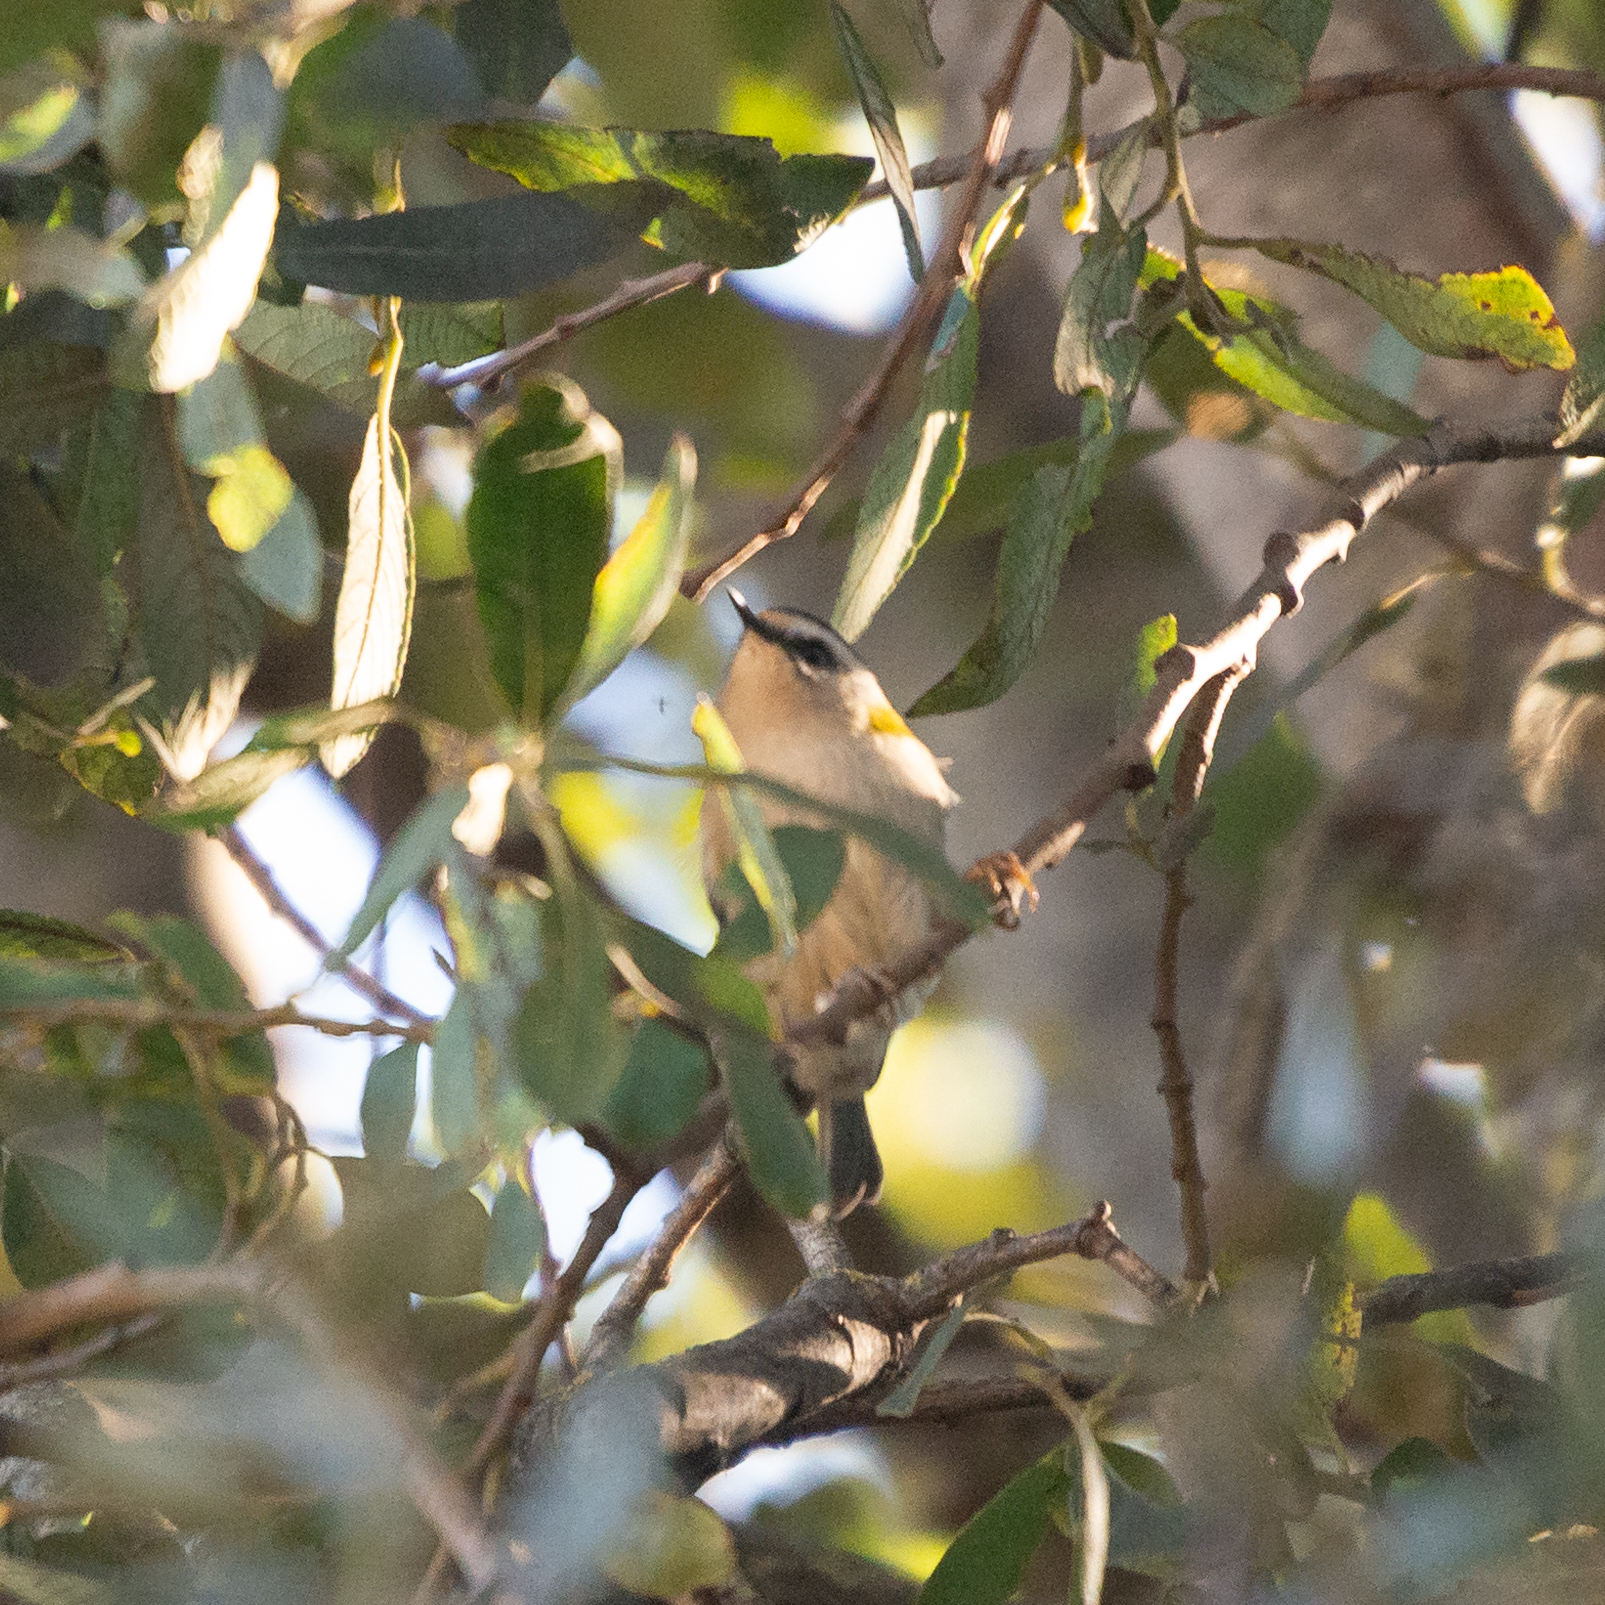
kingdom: Animalia
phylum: Chordata
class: Aves
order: Passeriformes
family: Regulidae
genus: Regulus
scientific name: Regulus ignicapilla
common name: Firecrest
